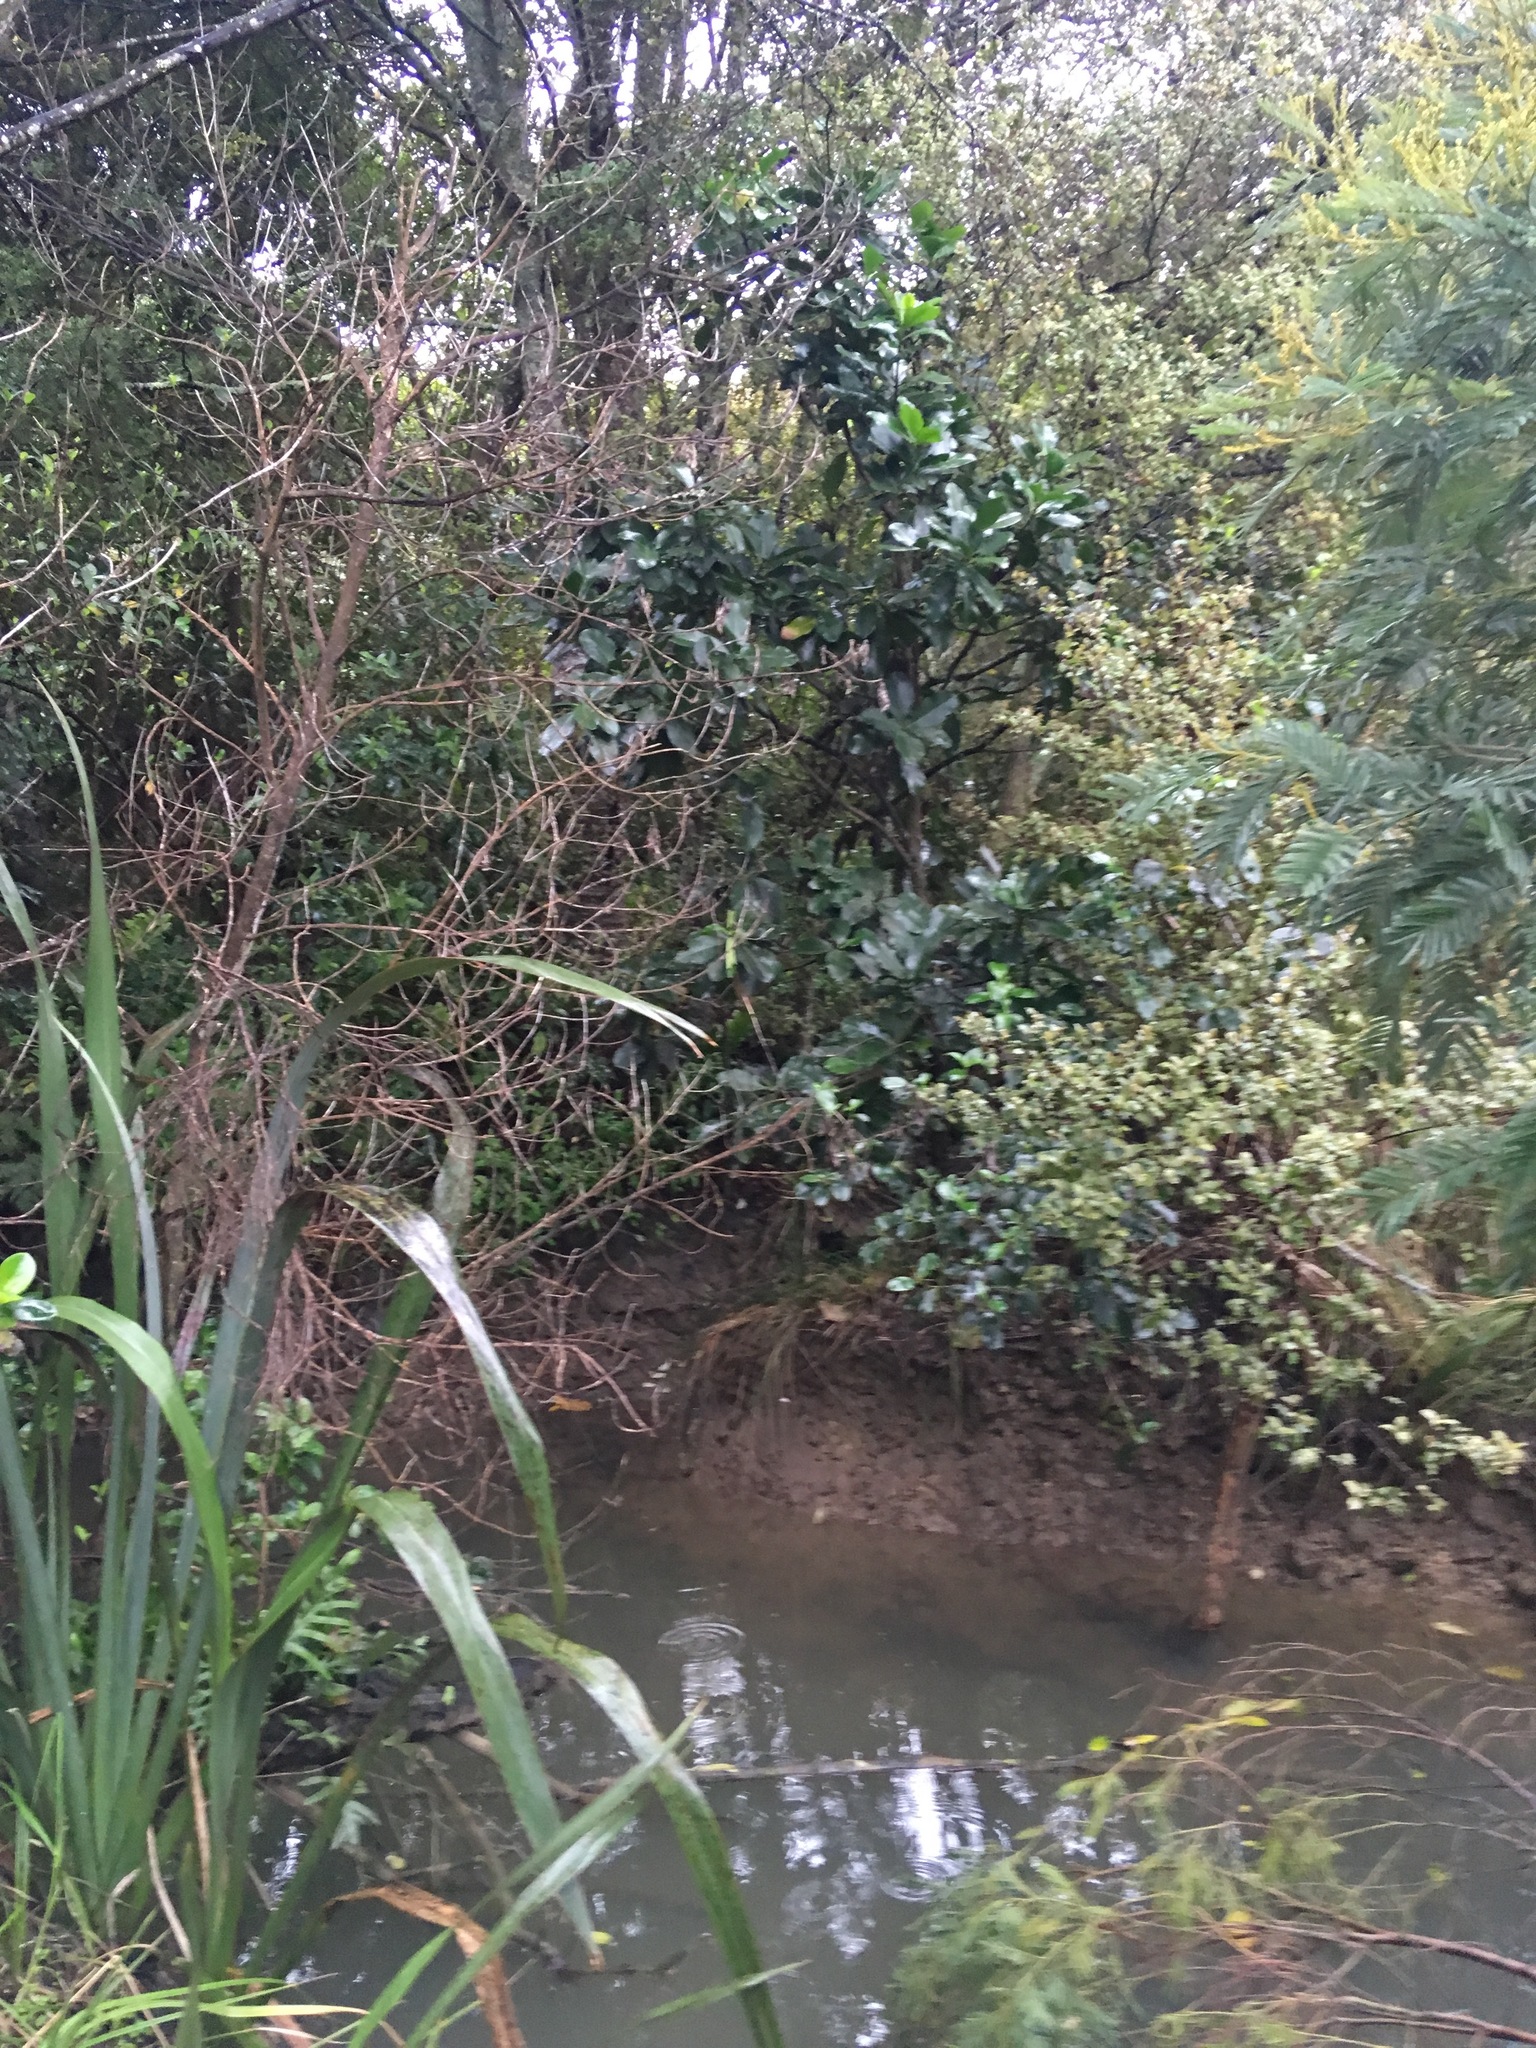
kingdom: Plantae
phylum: Tracheophyta
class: Magnoliopsida
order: Cucurbitales
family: Corynocarpaceae
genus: Corynocarpus
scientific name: Corynocarpus laevigatus
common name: New zealand laurel
